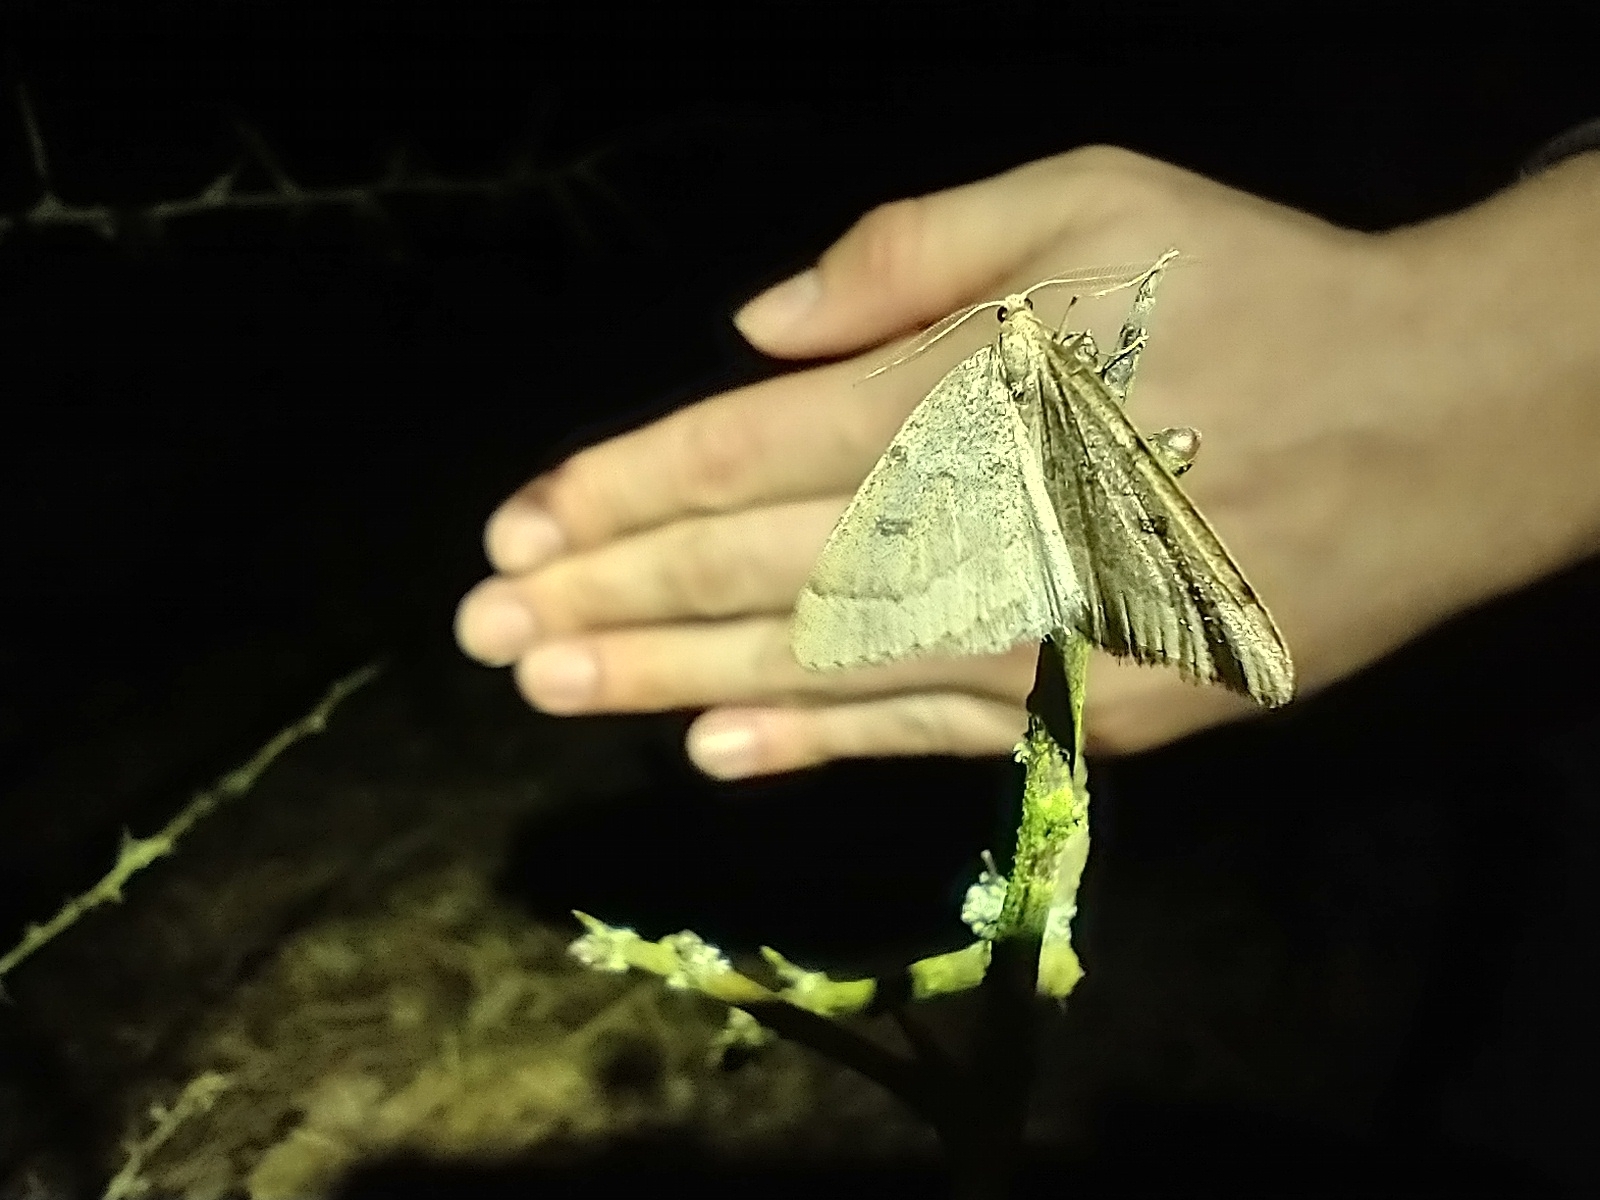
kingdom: Animalia
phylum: Arthropoda
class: Insecta
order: Lepidoptera
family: Geometridae
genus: Theria
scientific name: Theria rupicapraria
